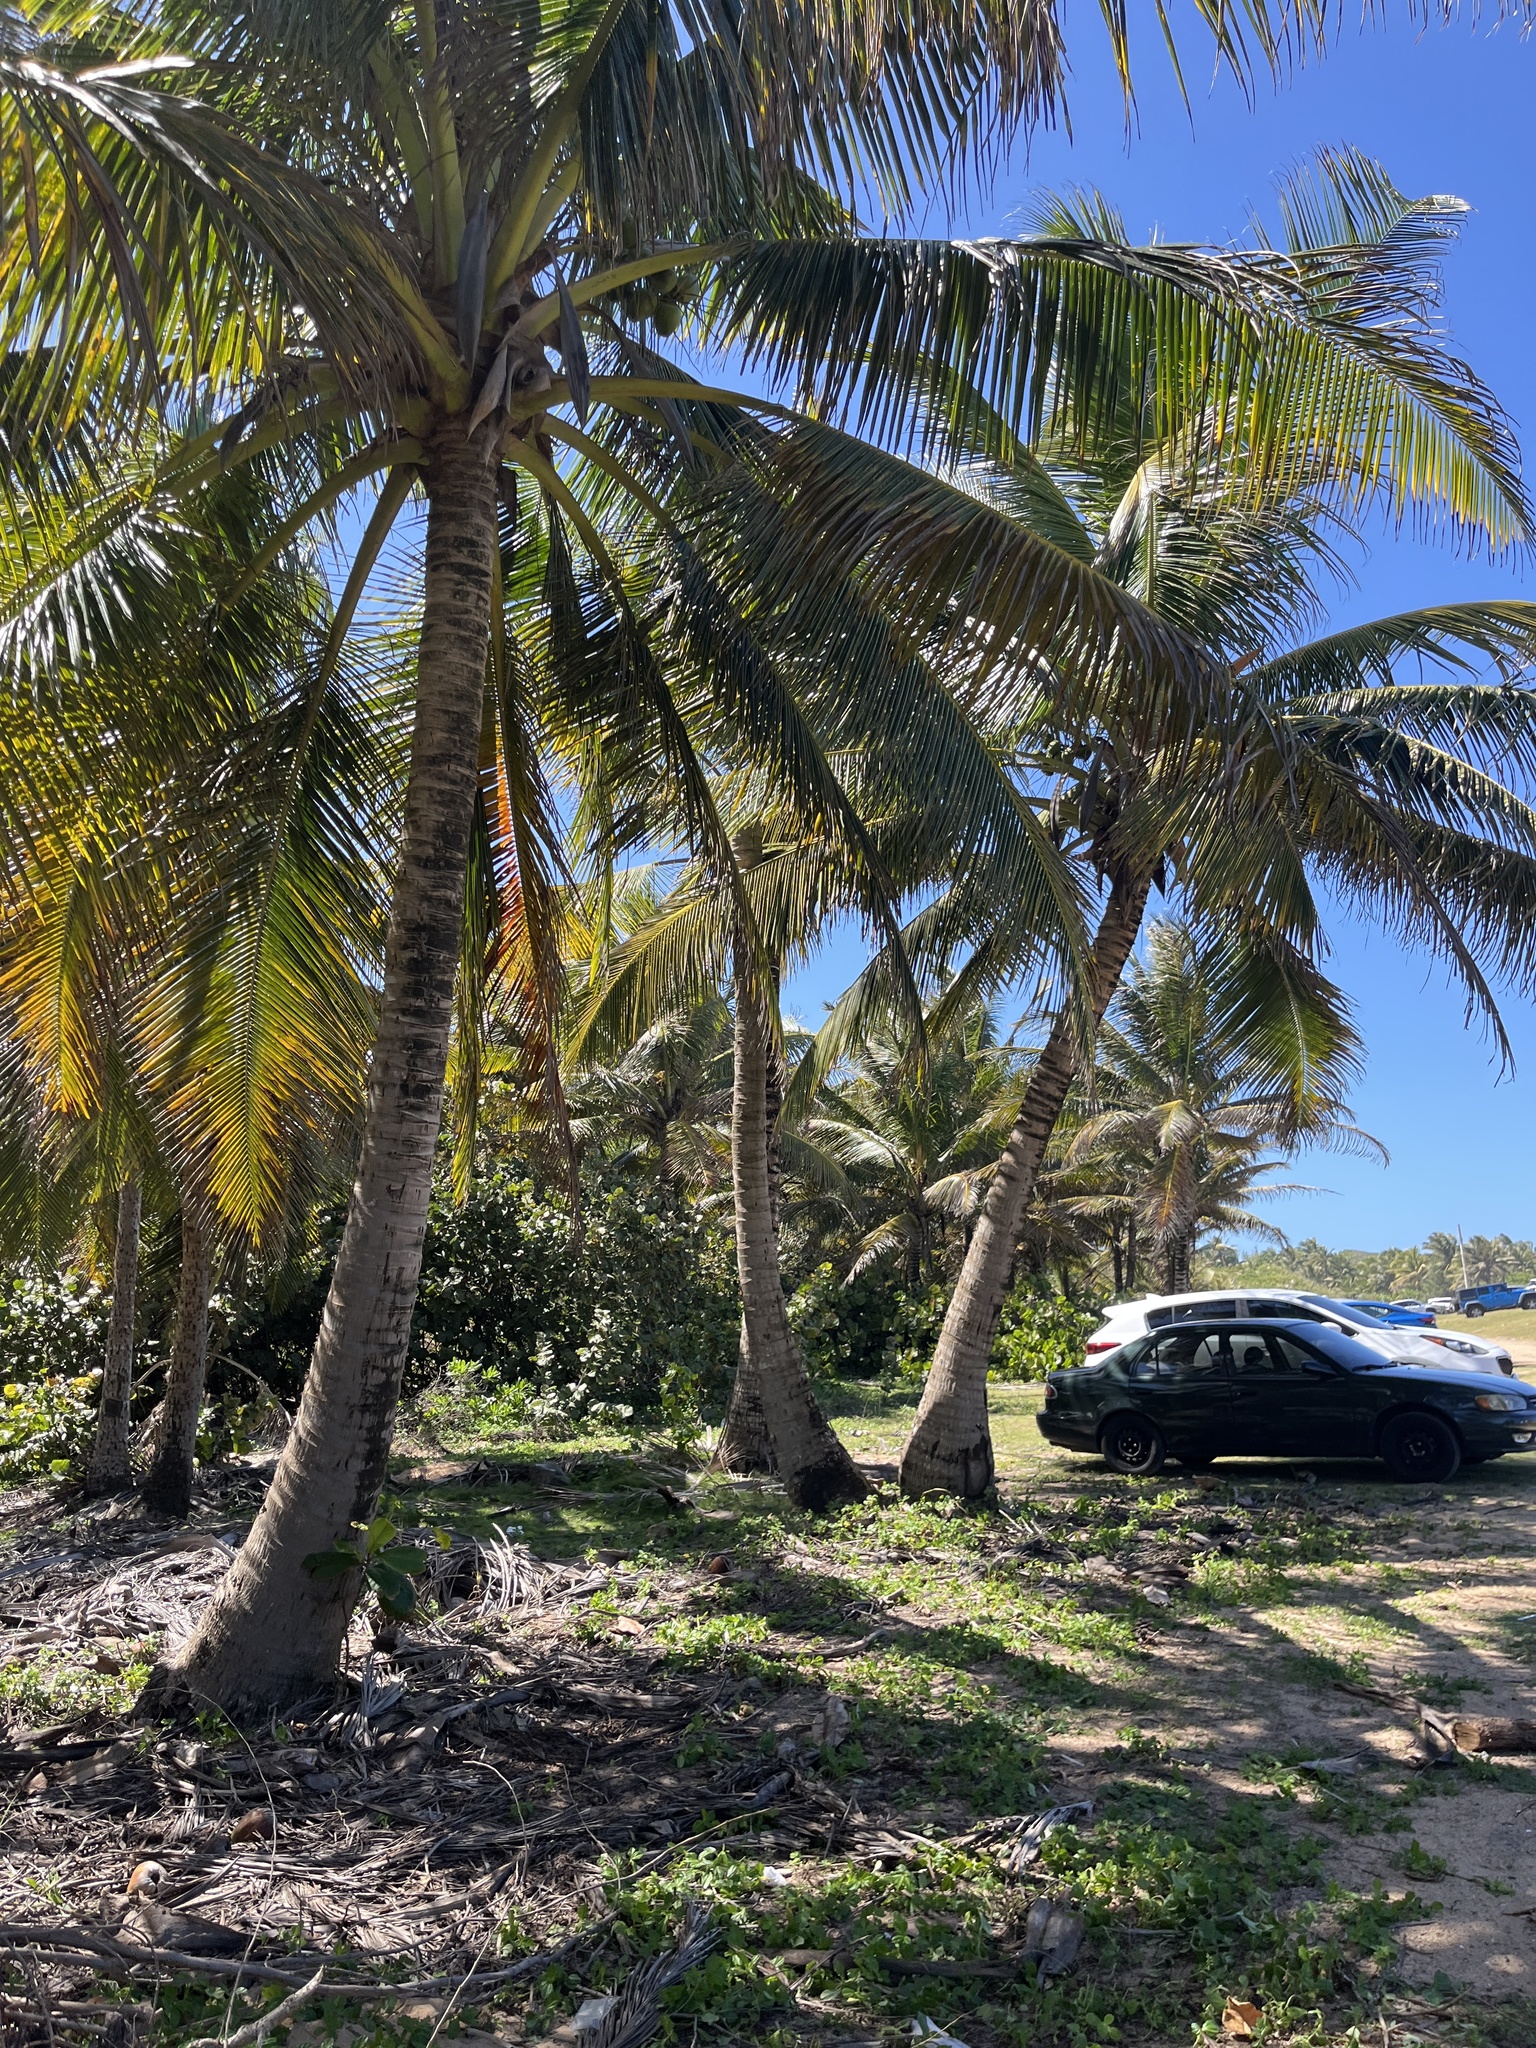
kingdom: Plantae
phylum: Tracheophyta
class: Liliopsida
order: Arecales
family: Arecaceae
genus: Cocos
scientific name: Cocos nucifera
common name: Coconut palm
